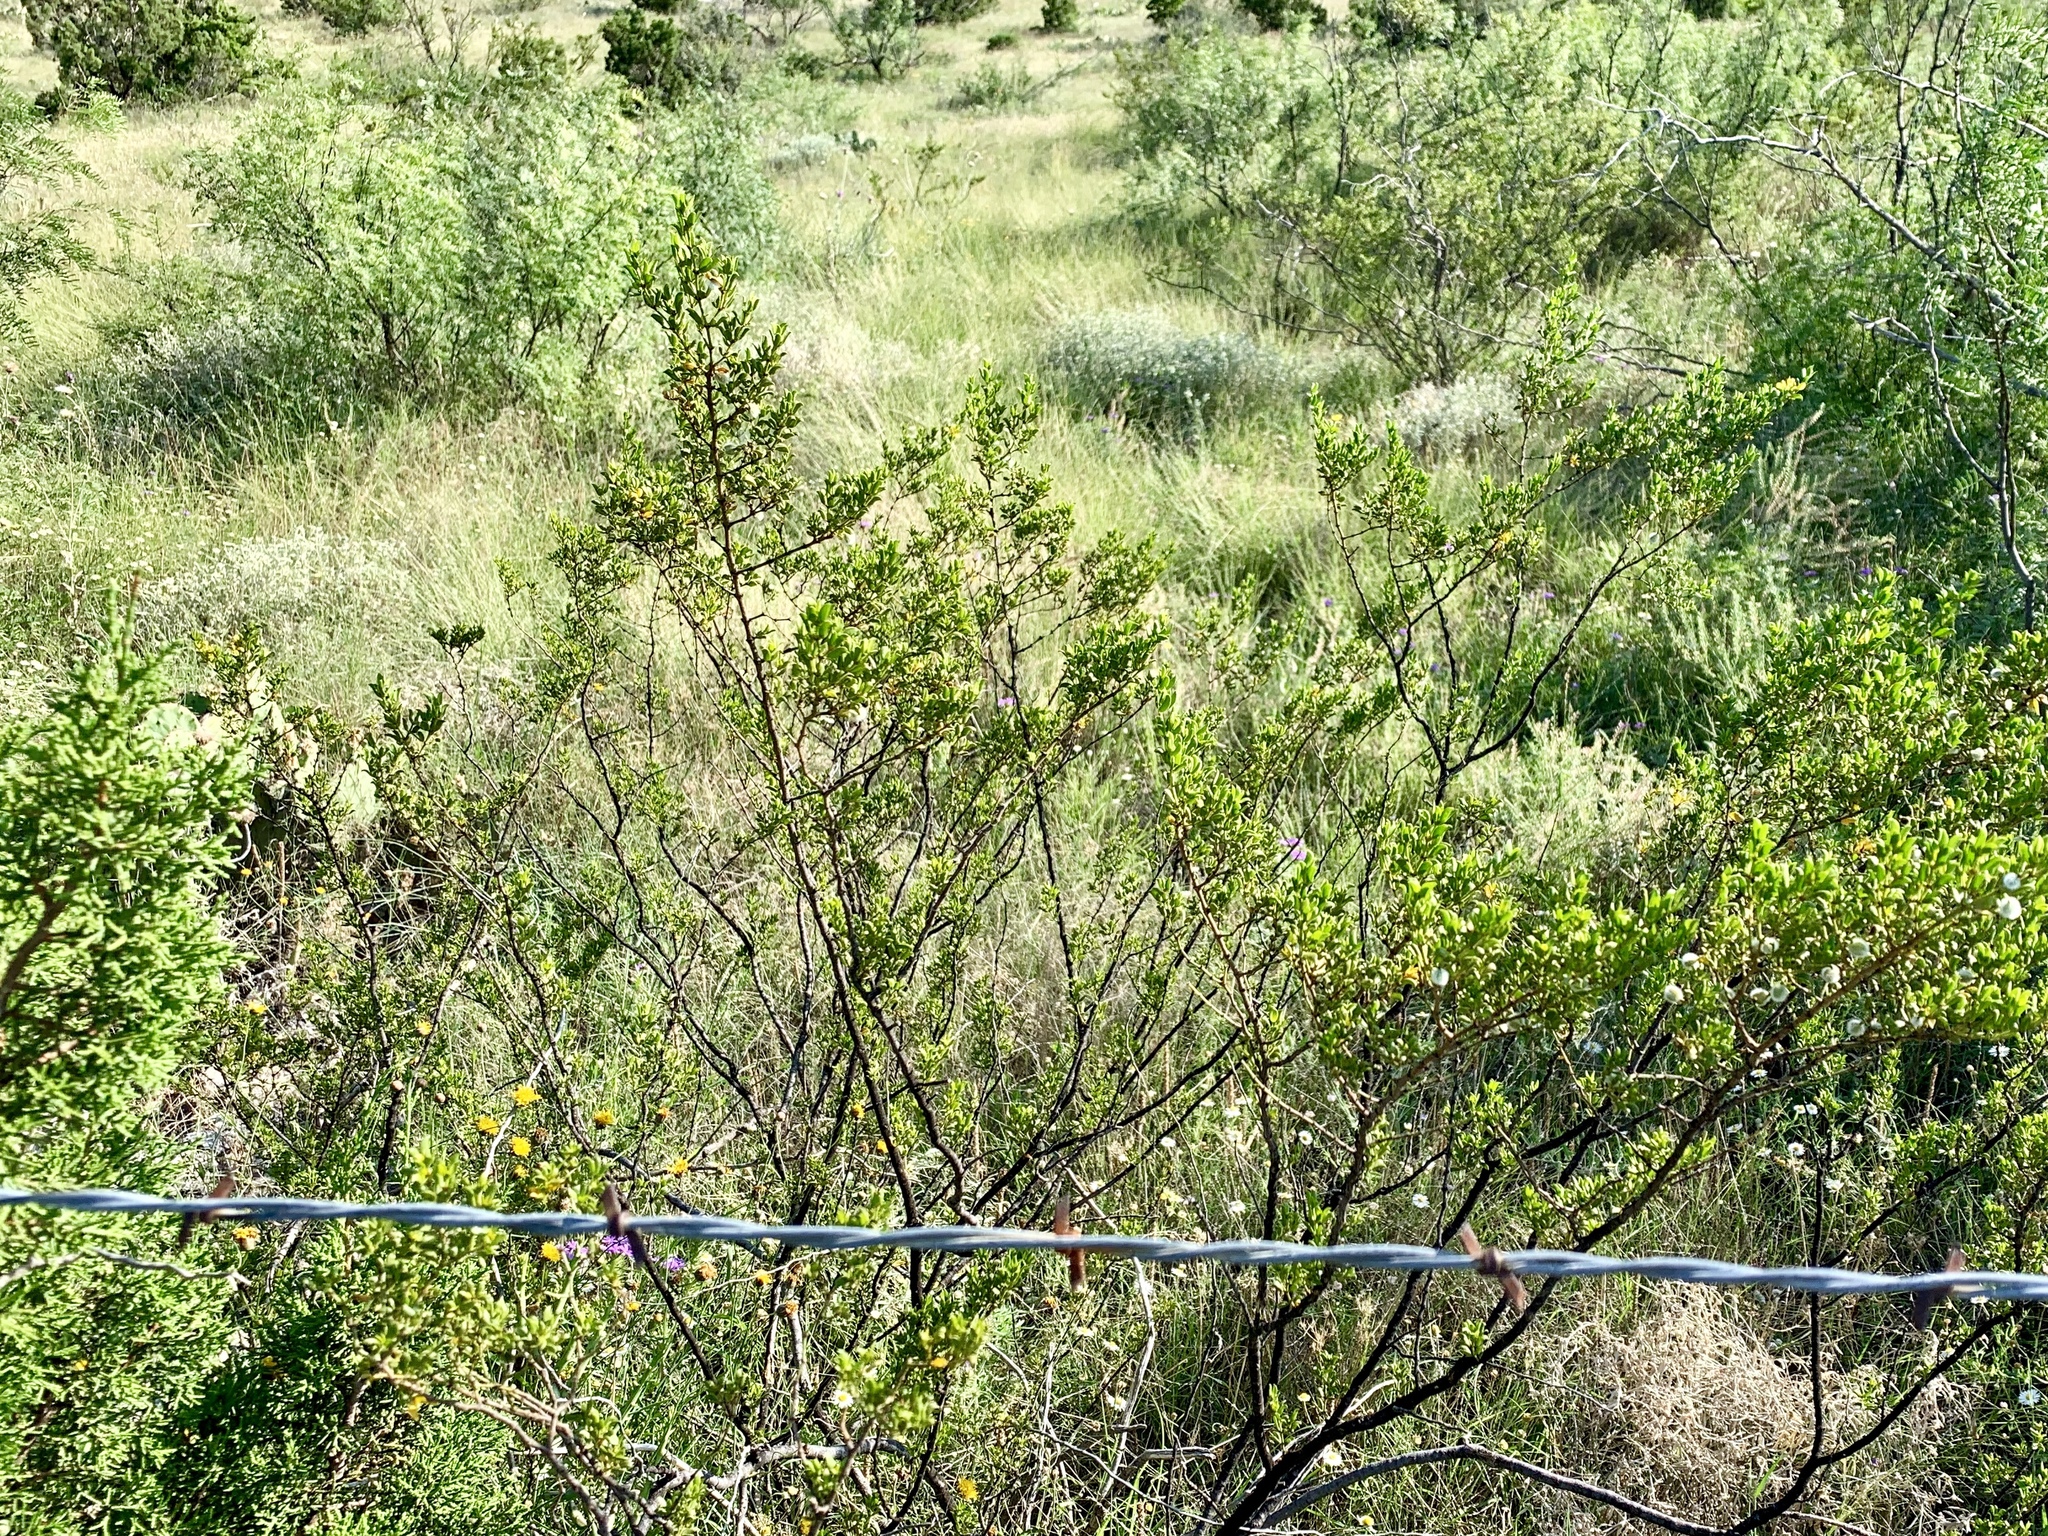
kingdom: Plantae
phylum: Tracheophyta
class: Magnoliopsida
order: Zygophyllales
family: Zygophyllaceae
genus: Larrea
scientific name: Larrea tridentata
